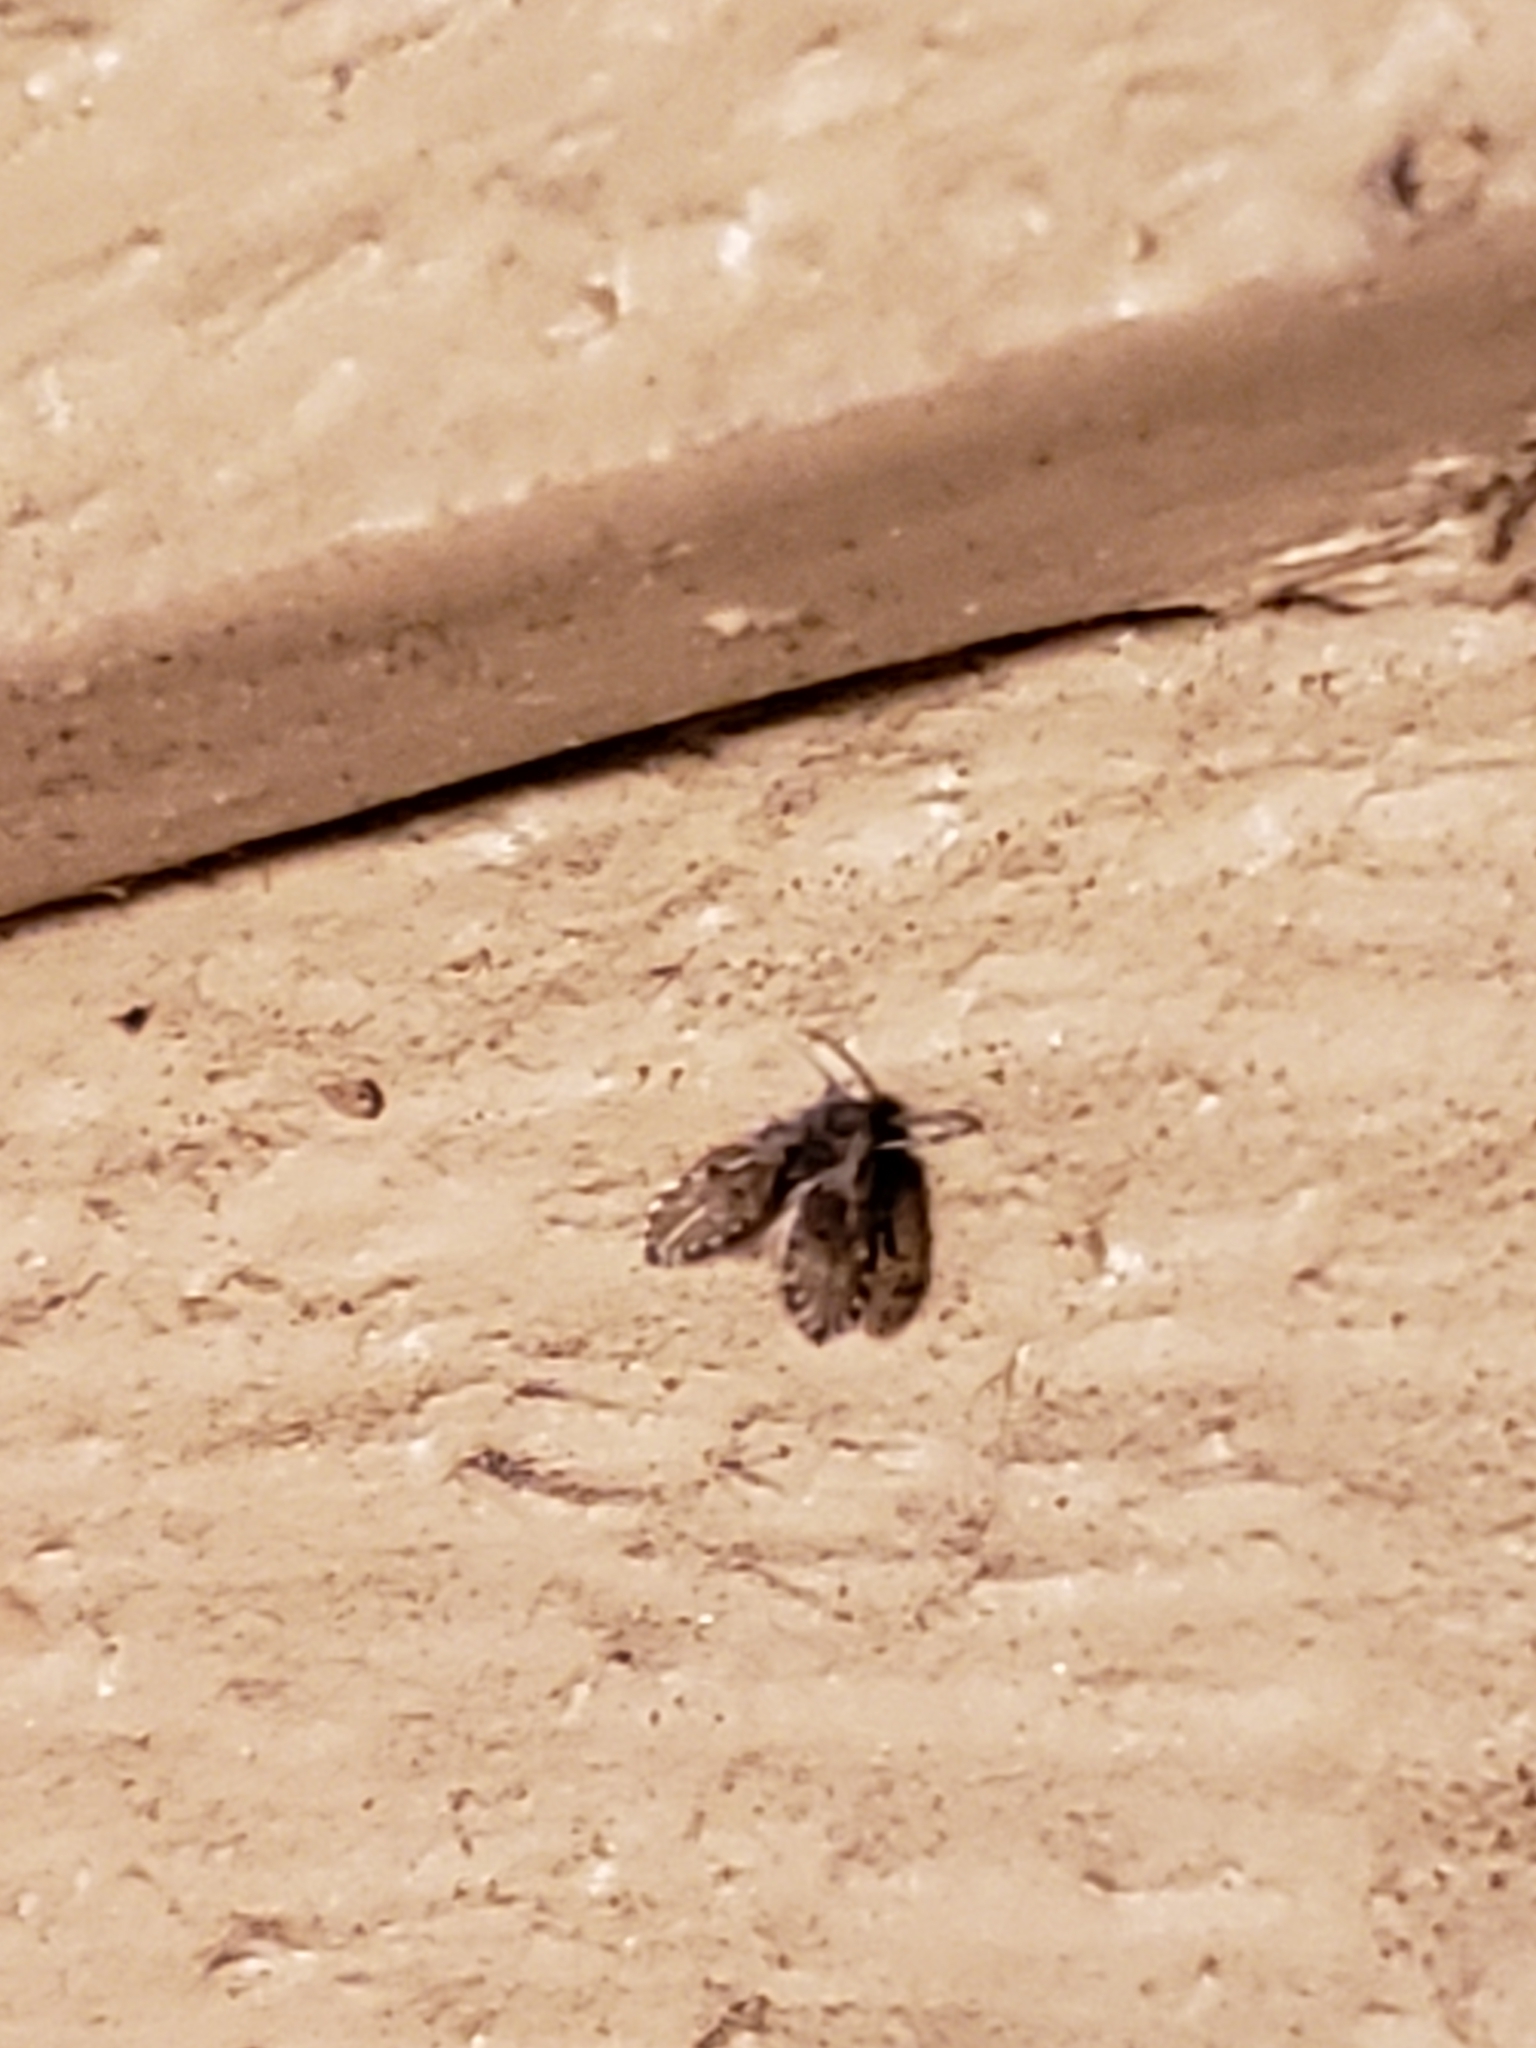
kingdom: Animalia
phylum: Arthropoda
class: Insecta
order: Diptera
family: Psychodidae
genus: Clogmia
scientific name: Clogmia albipunctatus
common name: White-spotted moth fly
